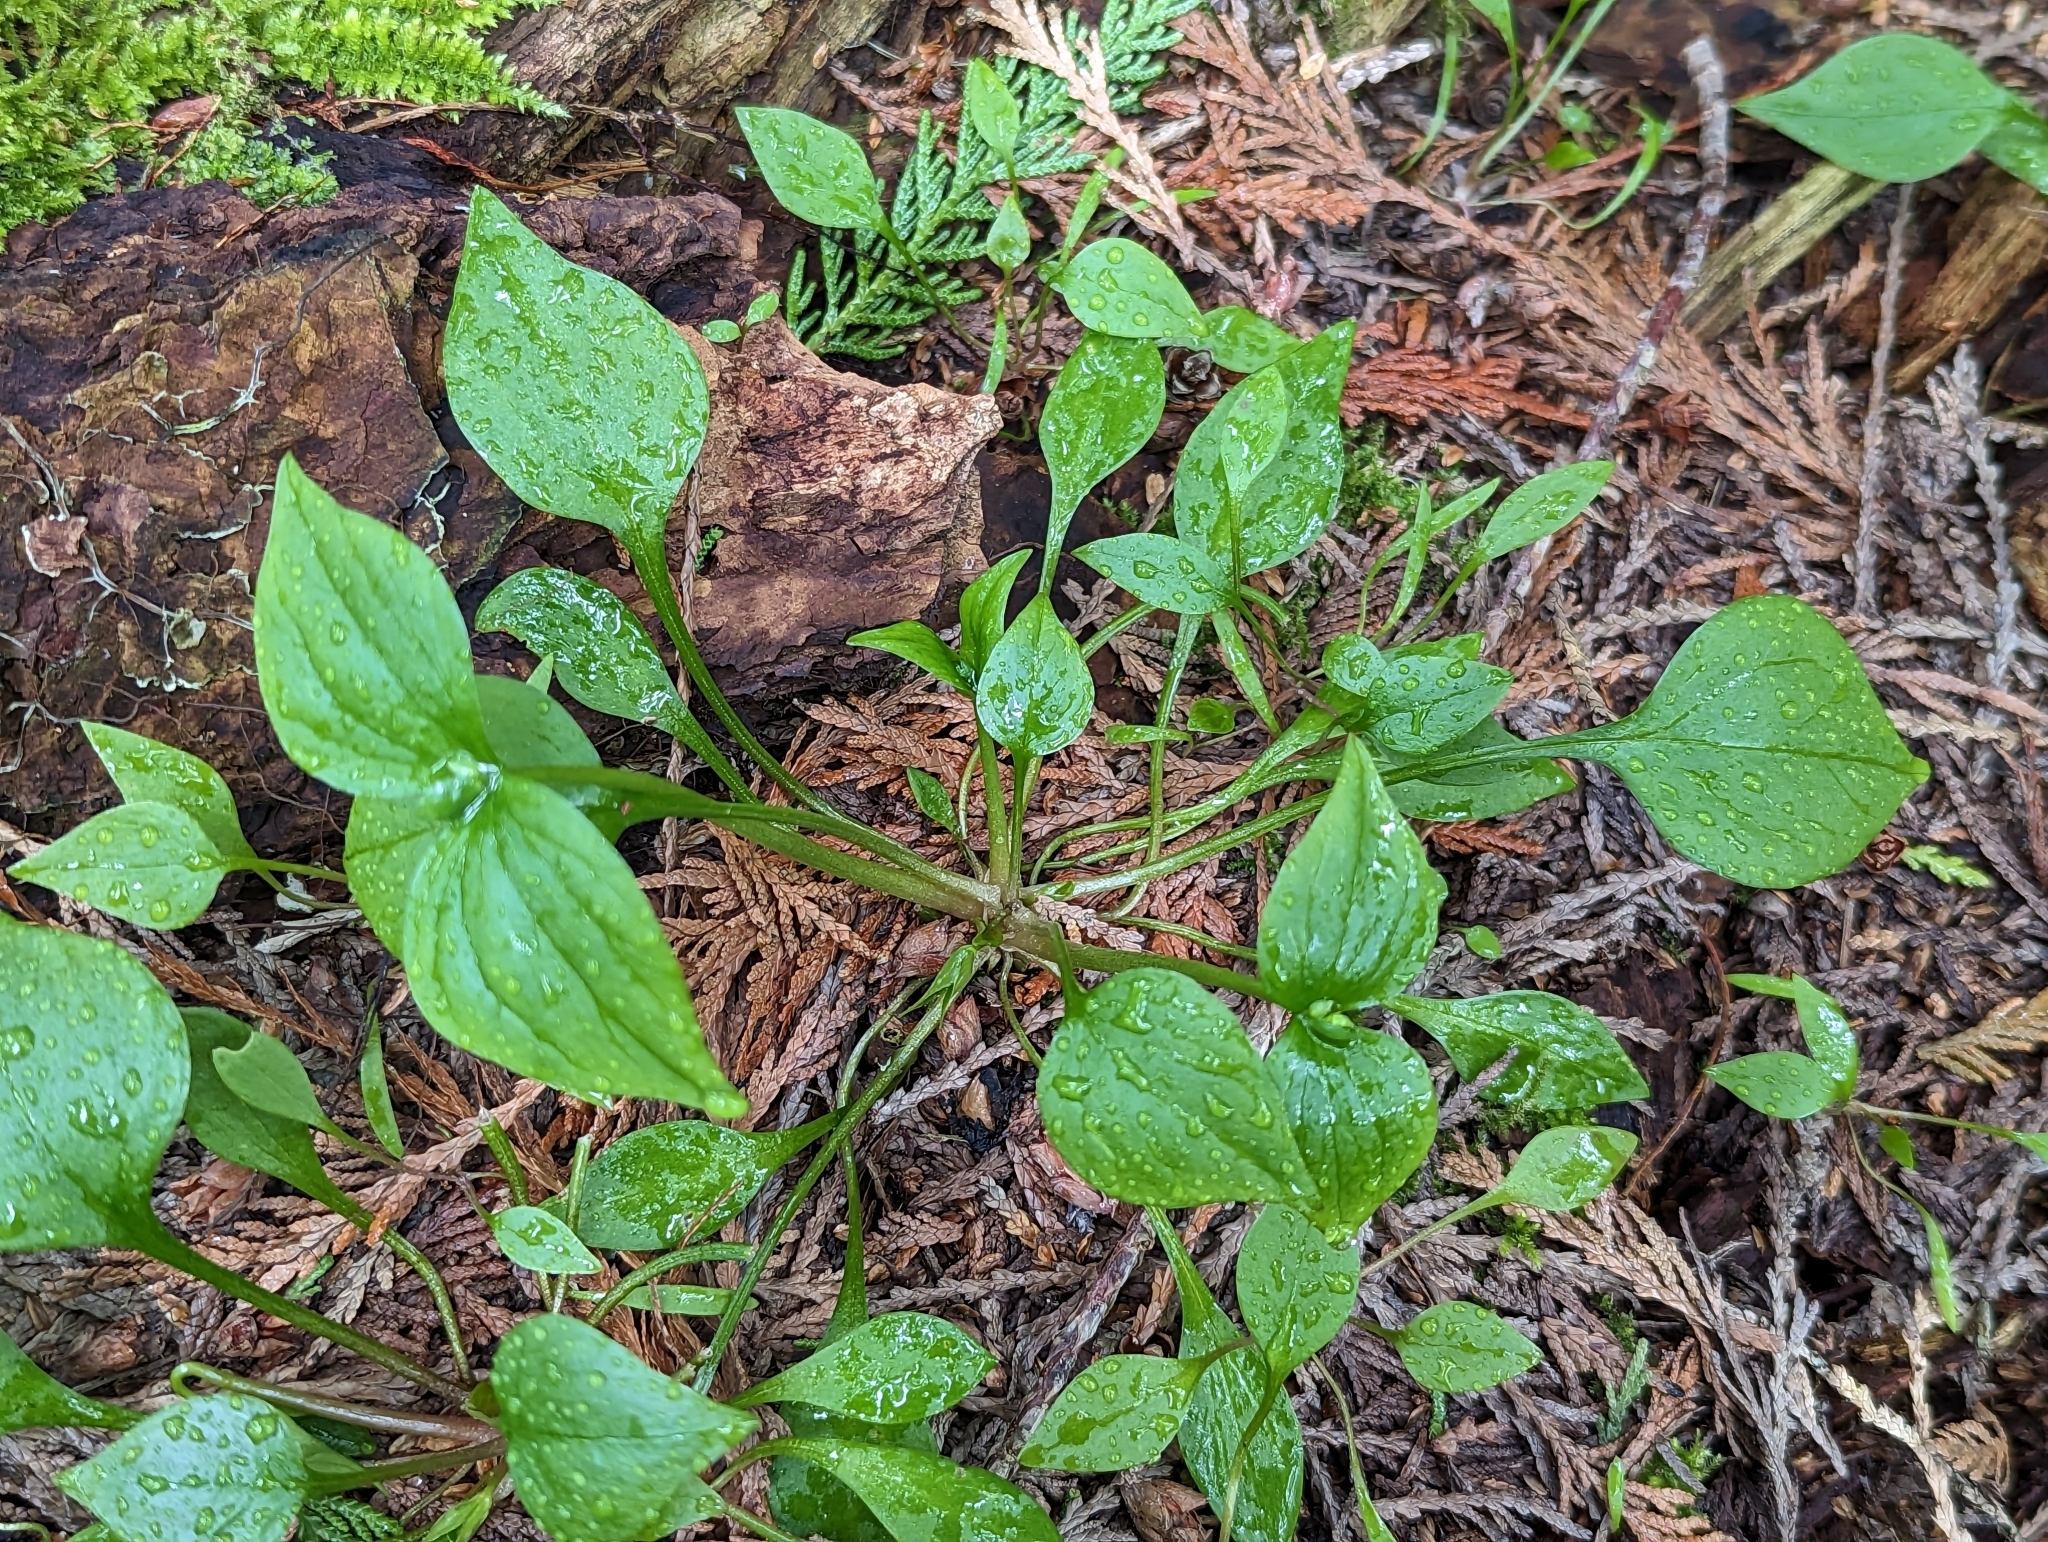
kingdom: Plantae
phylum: Tracheophyta
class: Magnoliopsida
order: Caryophyllales
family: Montiaceae
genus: Claytonia
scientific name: Claytonia sibirica
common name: Pink purslane
